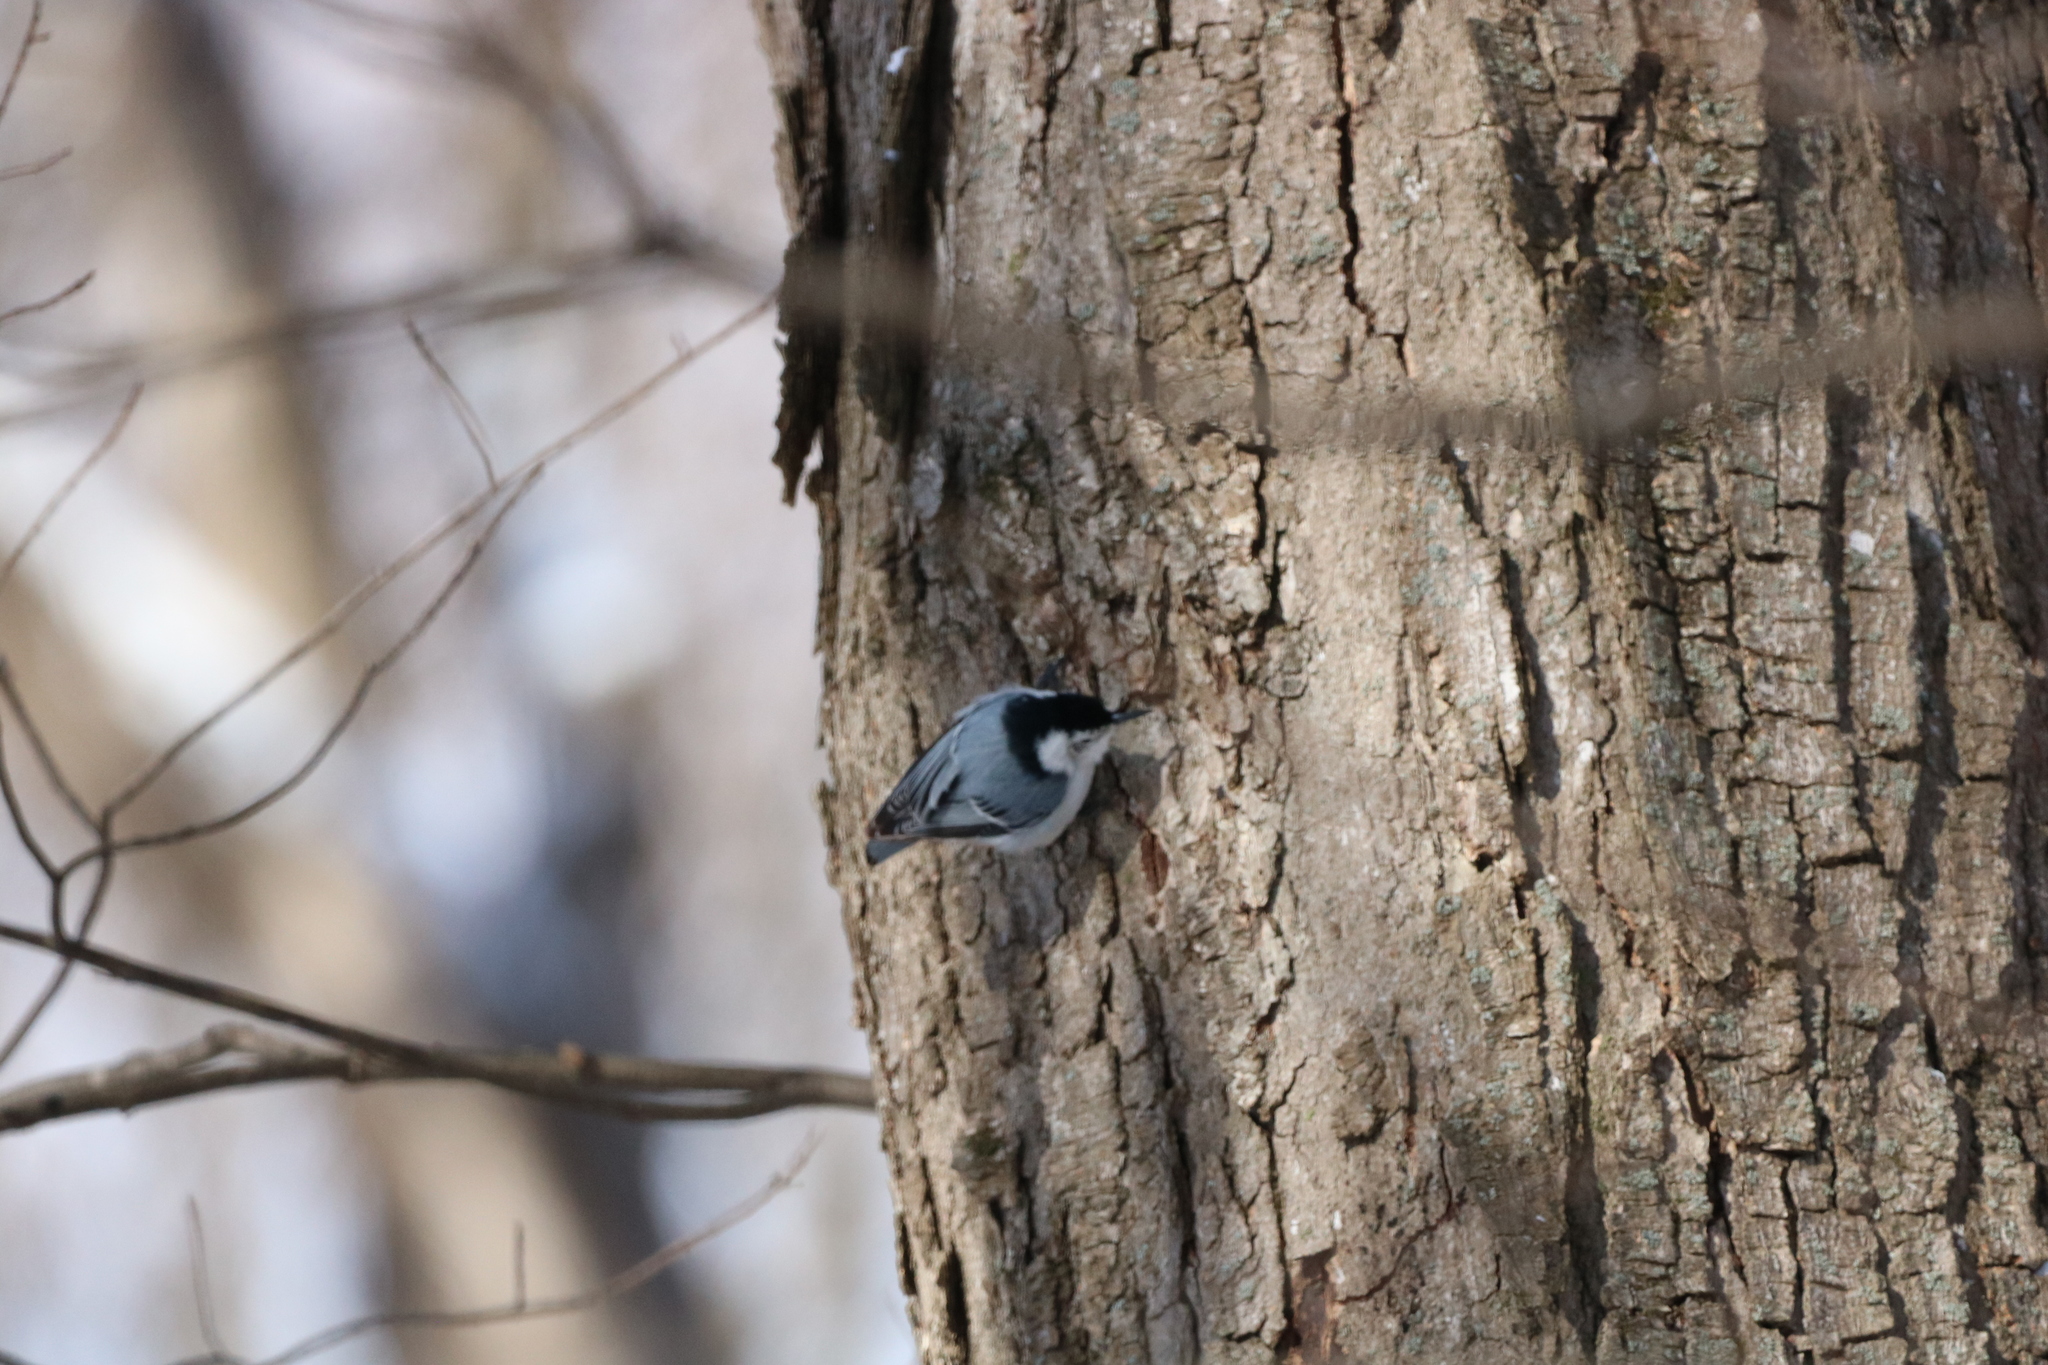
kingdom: Animalia
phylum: Chordata
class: Aves
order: Passeriformes
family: Sittidae
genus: Sitta
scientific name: Sitta carolinensis
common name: White-breasted nuthatch
